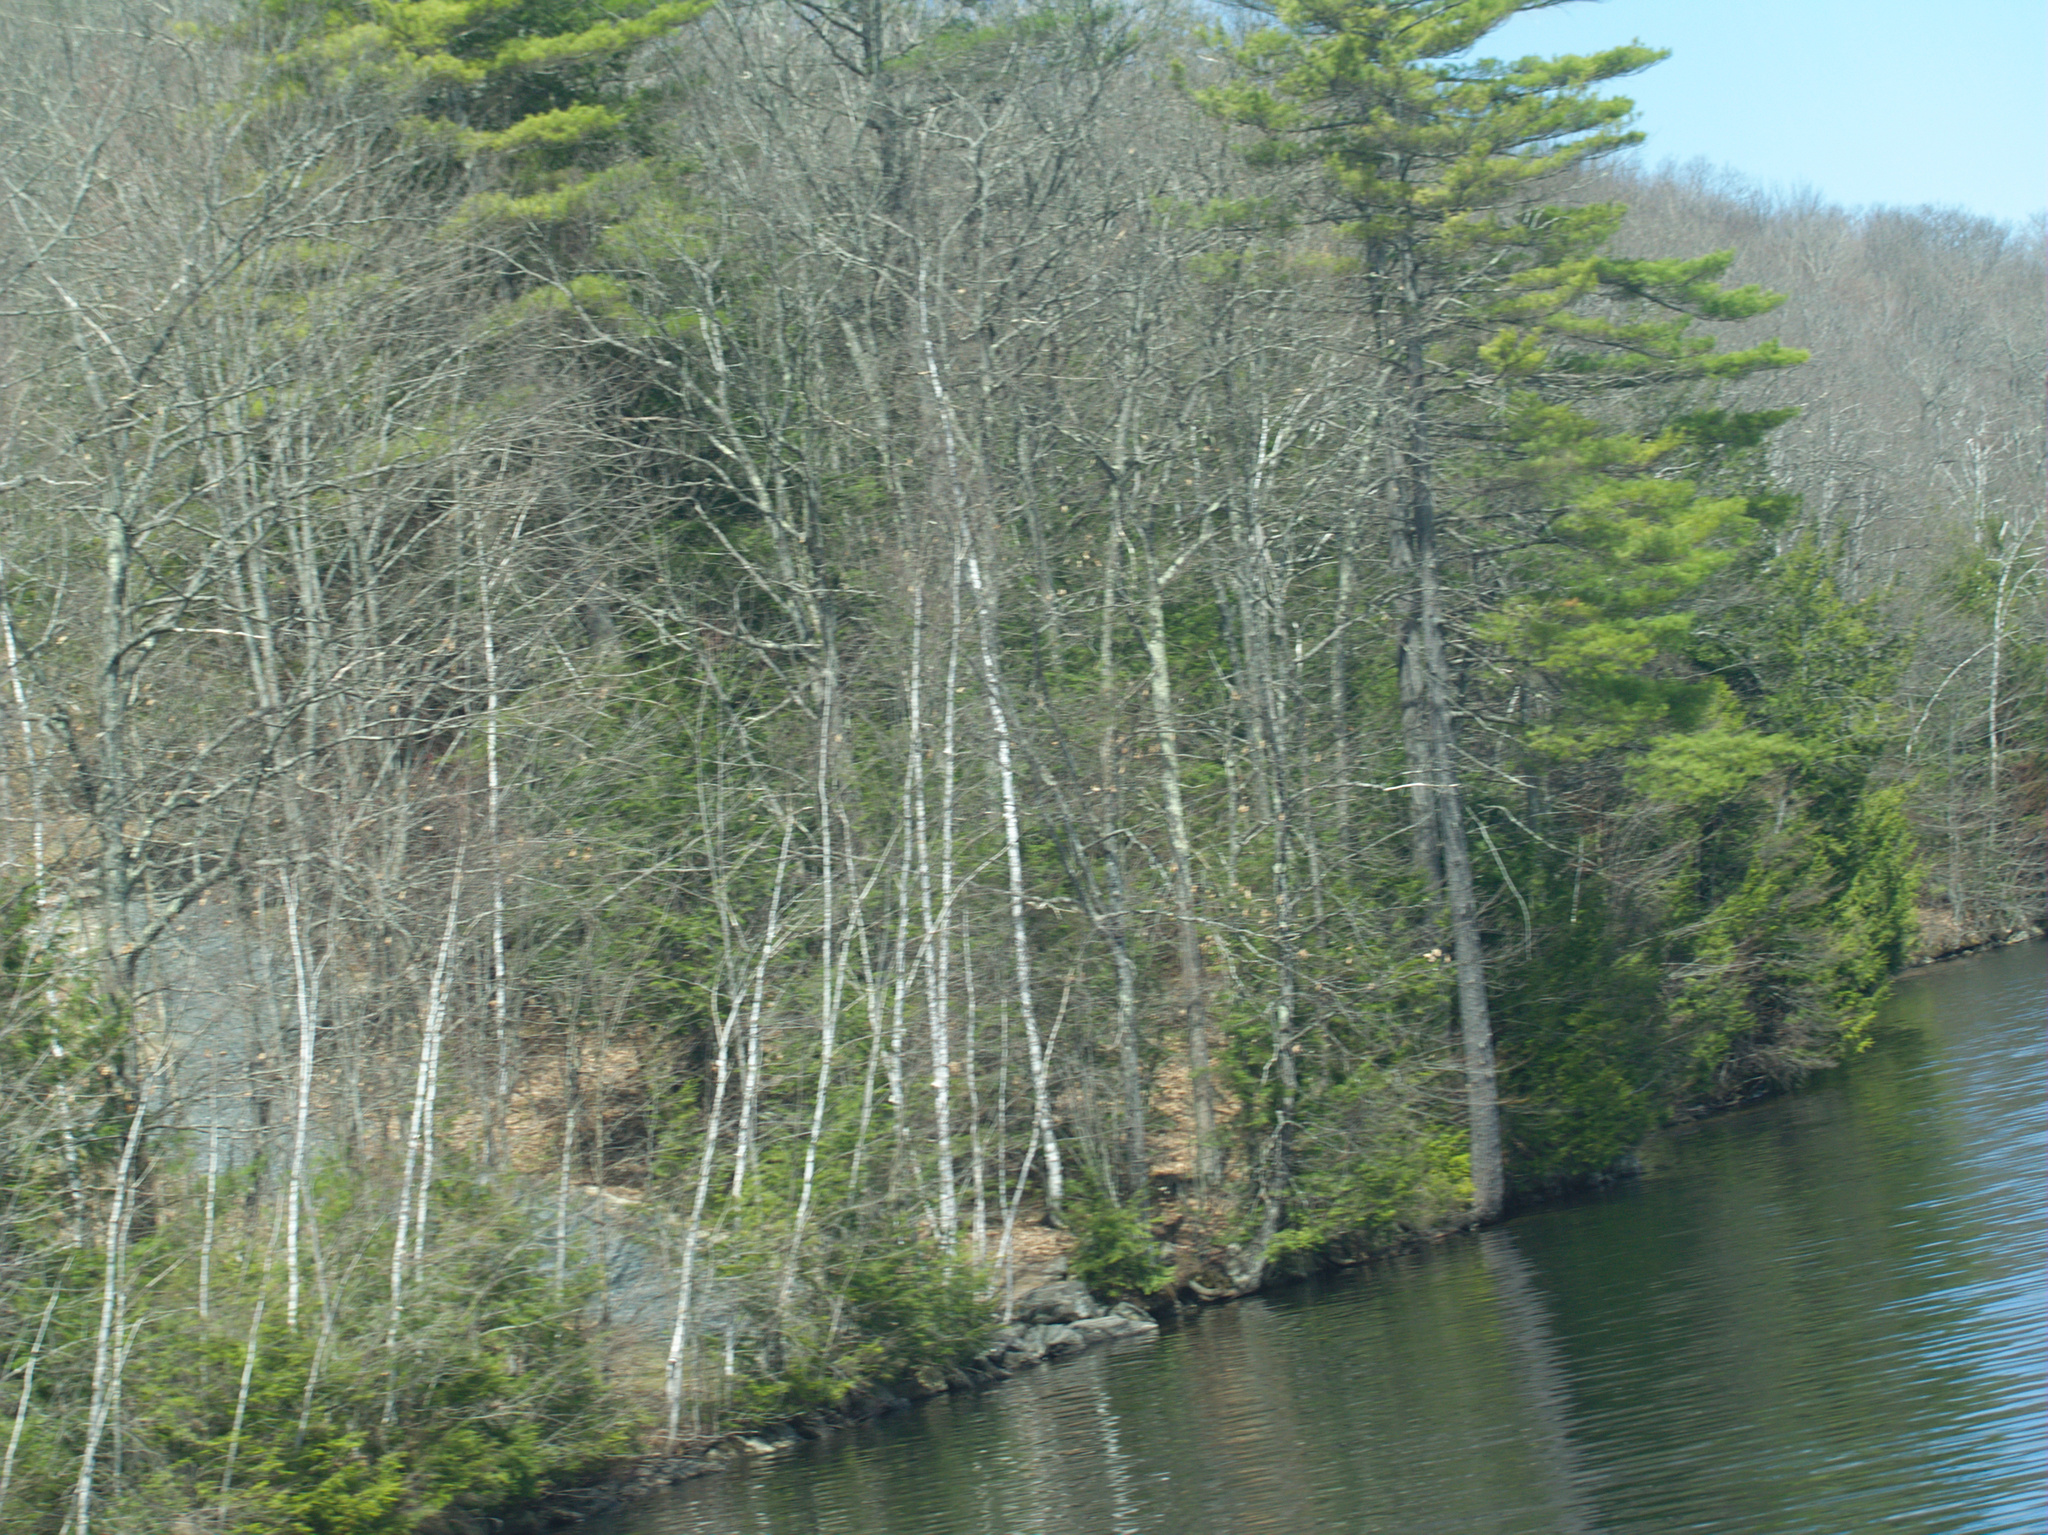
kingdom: Plantae
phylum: Tracheophyta
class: Pinopsida
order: Pinales
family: Pinaceae
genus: Pinus
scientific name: Pinus strobus
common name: Weymouth pine
